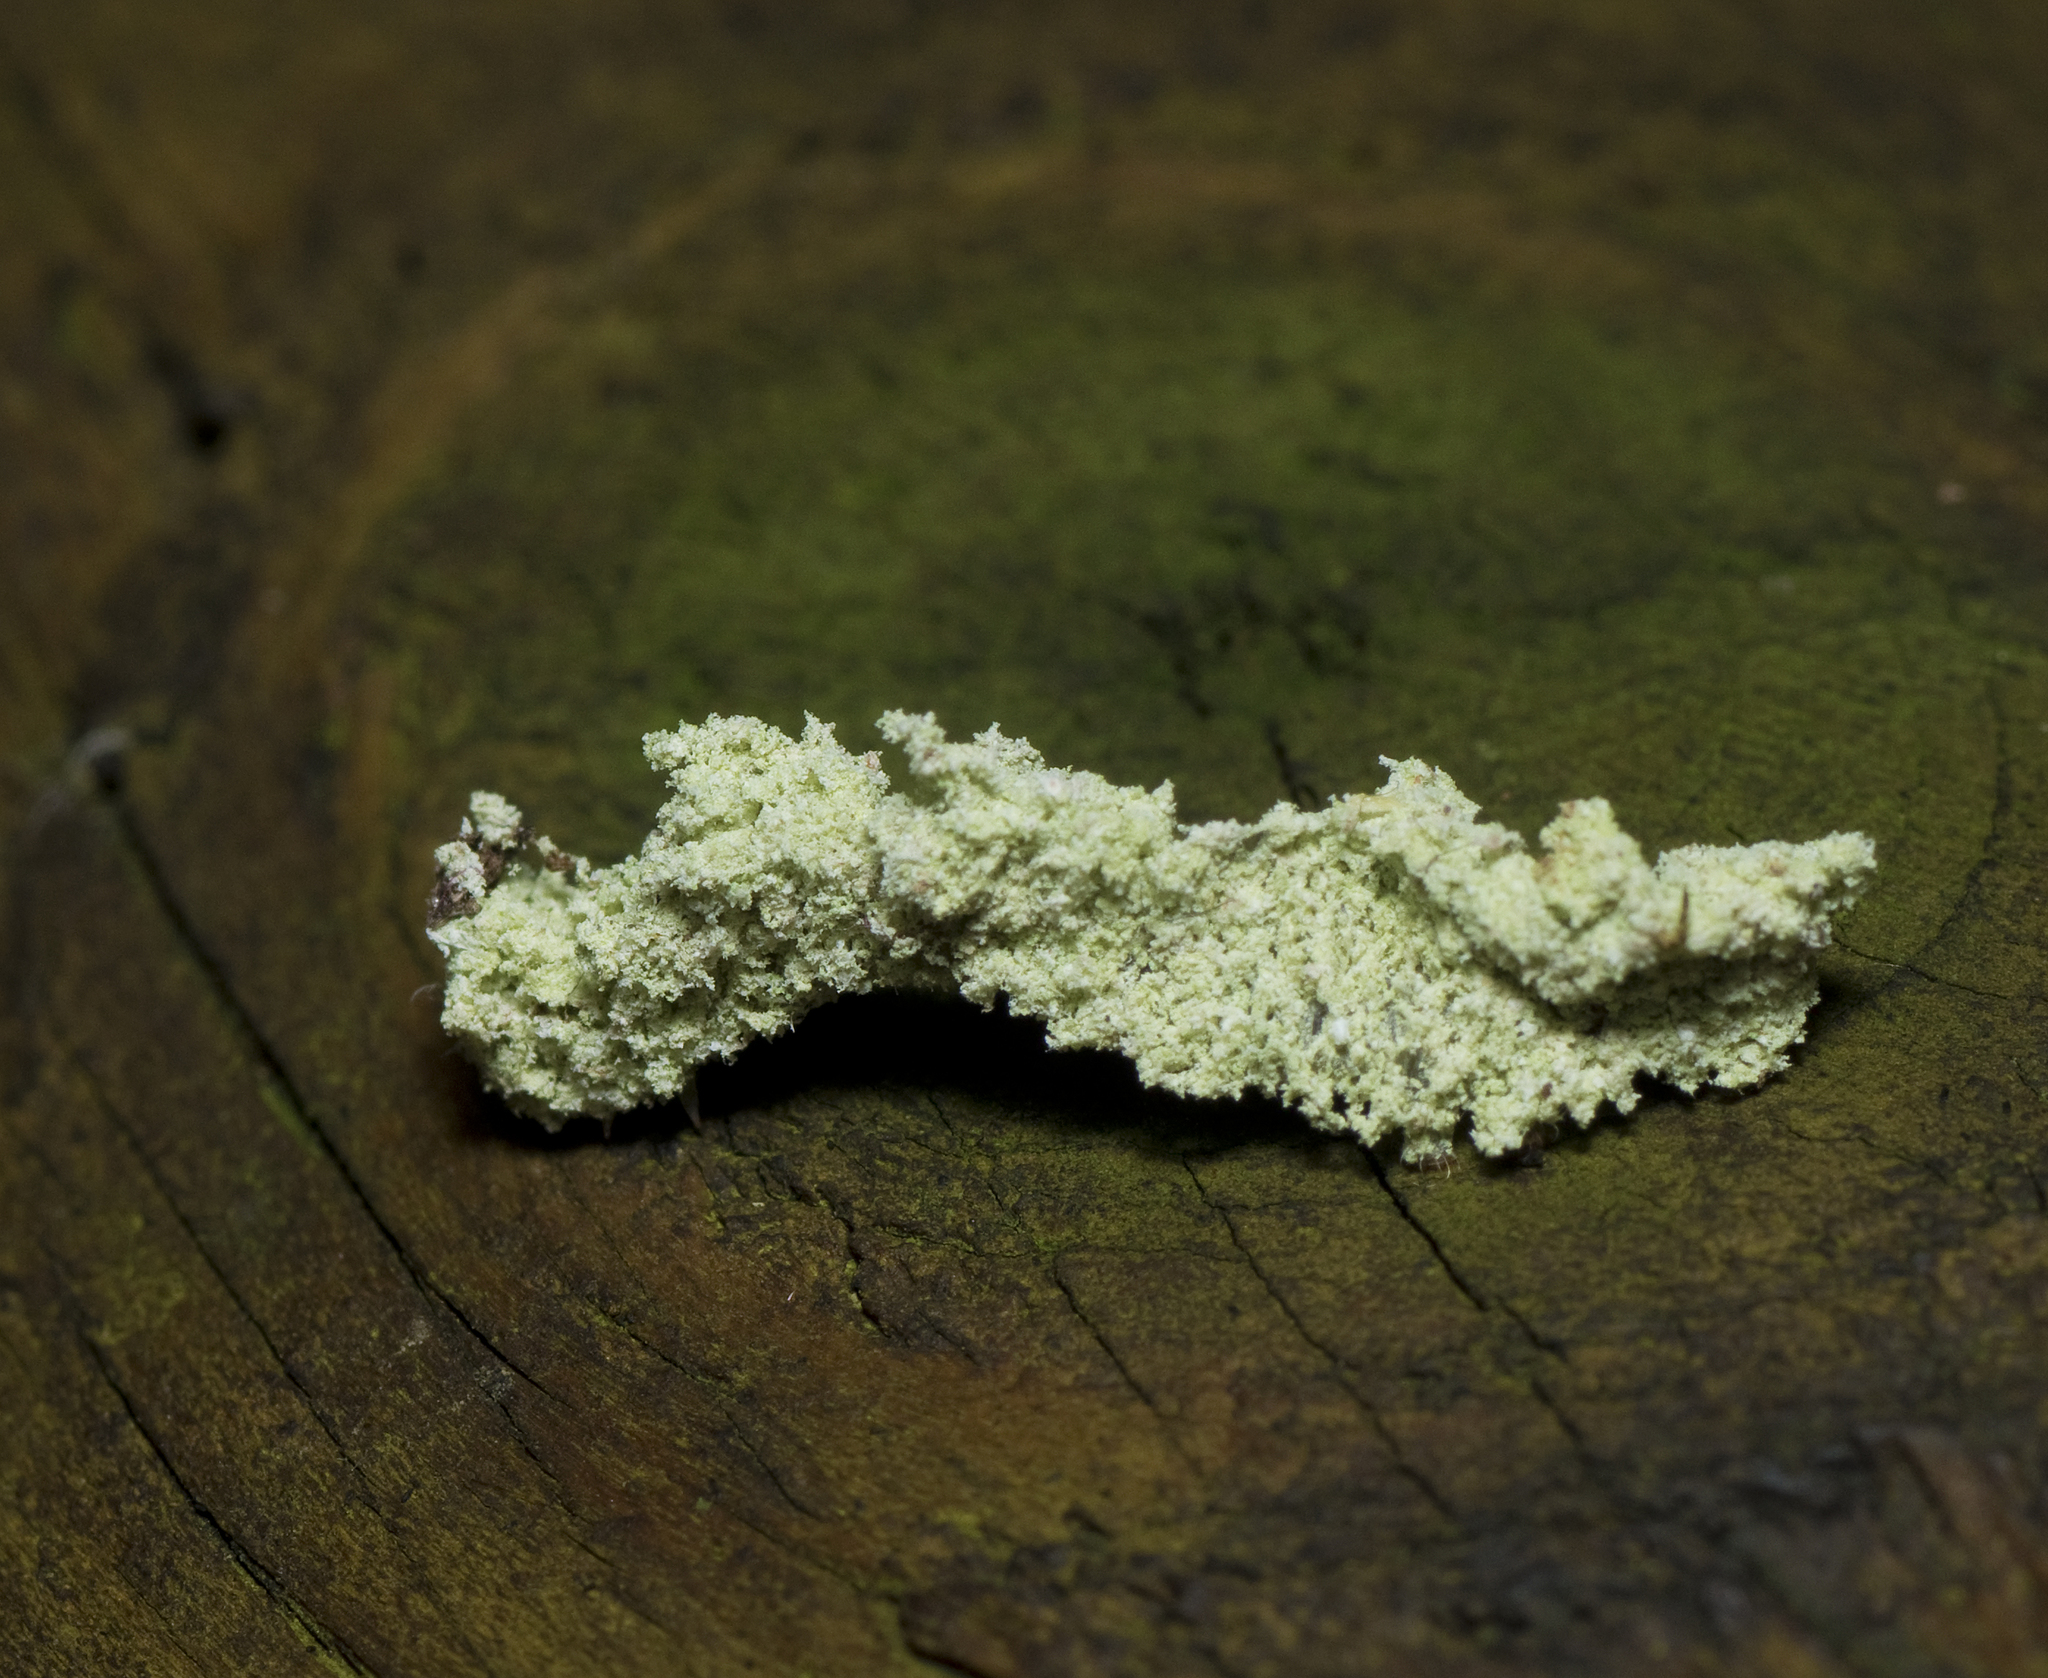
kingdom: Animalia
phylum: Arthropoda
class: Insecta
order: Lepidoptera
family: Noctuidae
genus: Enispa
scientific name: Enispa prolectus
